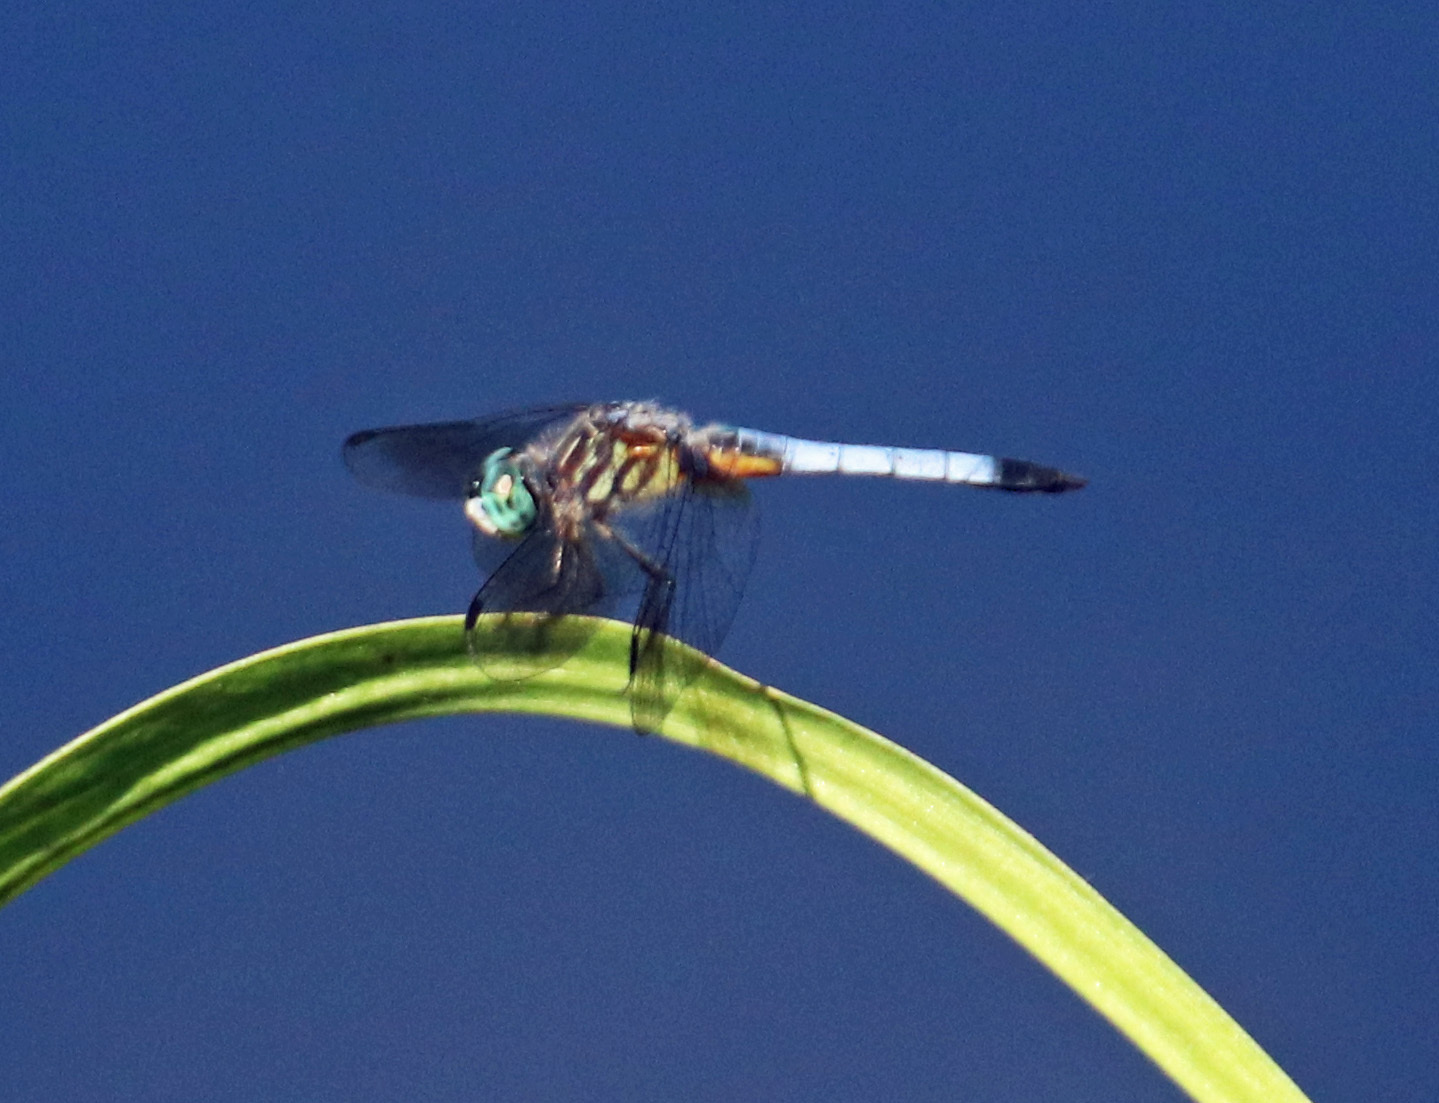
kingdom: Animalia
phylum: Arthropoda
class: Insecta
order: Odonata
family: Libellulidae
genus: Pachydiplax
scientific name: Pachydiplax longipennis
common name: Blue dasher
